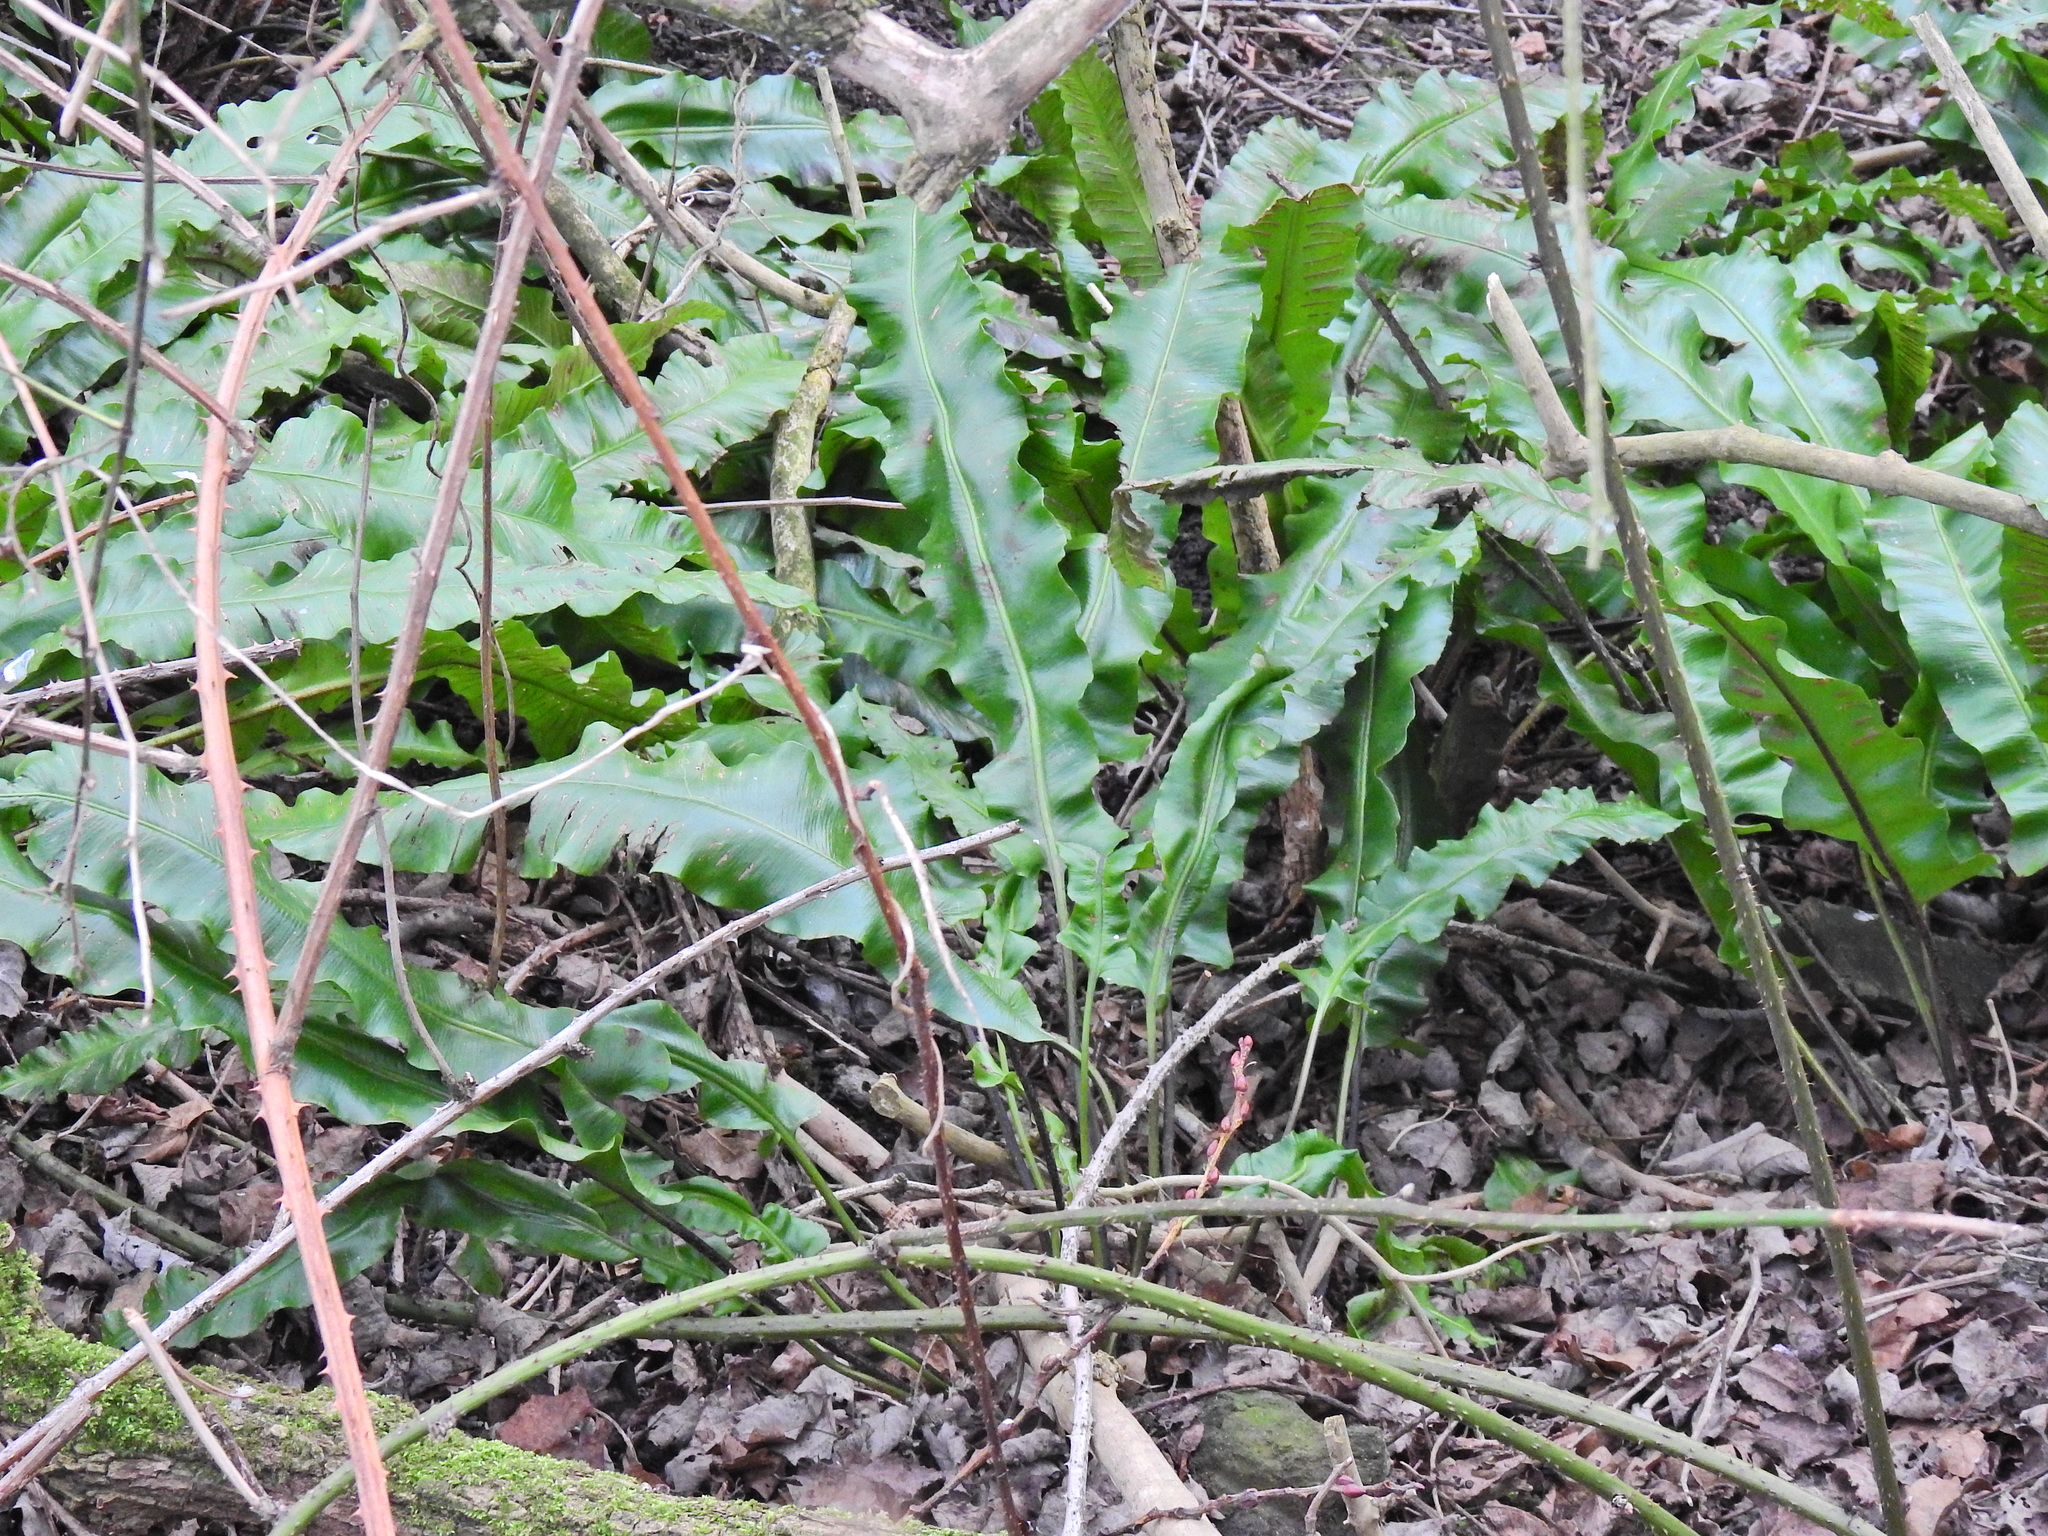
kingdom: Plantae
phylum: Tracheophyta
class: Polypodiopsida
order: Polypodiales
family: Aspleniaceae
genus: Asplenium
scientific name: Asplenium scolopendrium
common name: Hart's-tongue fern
